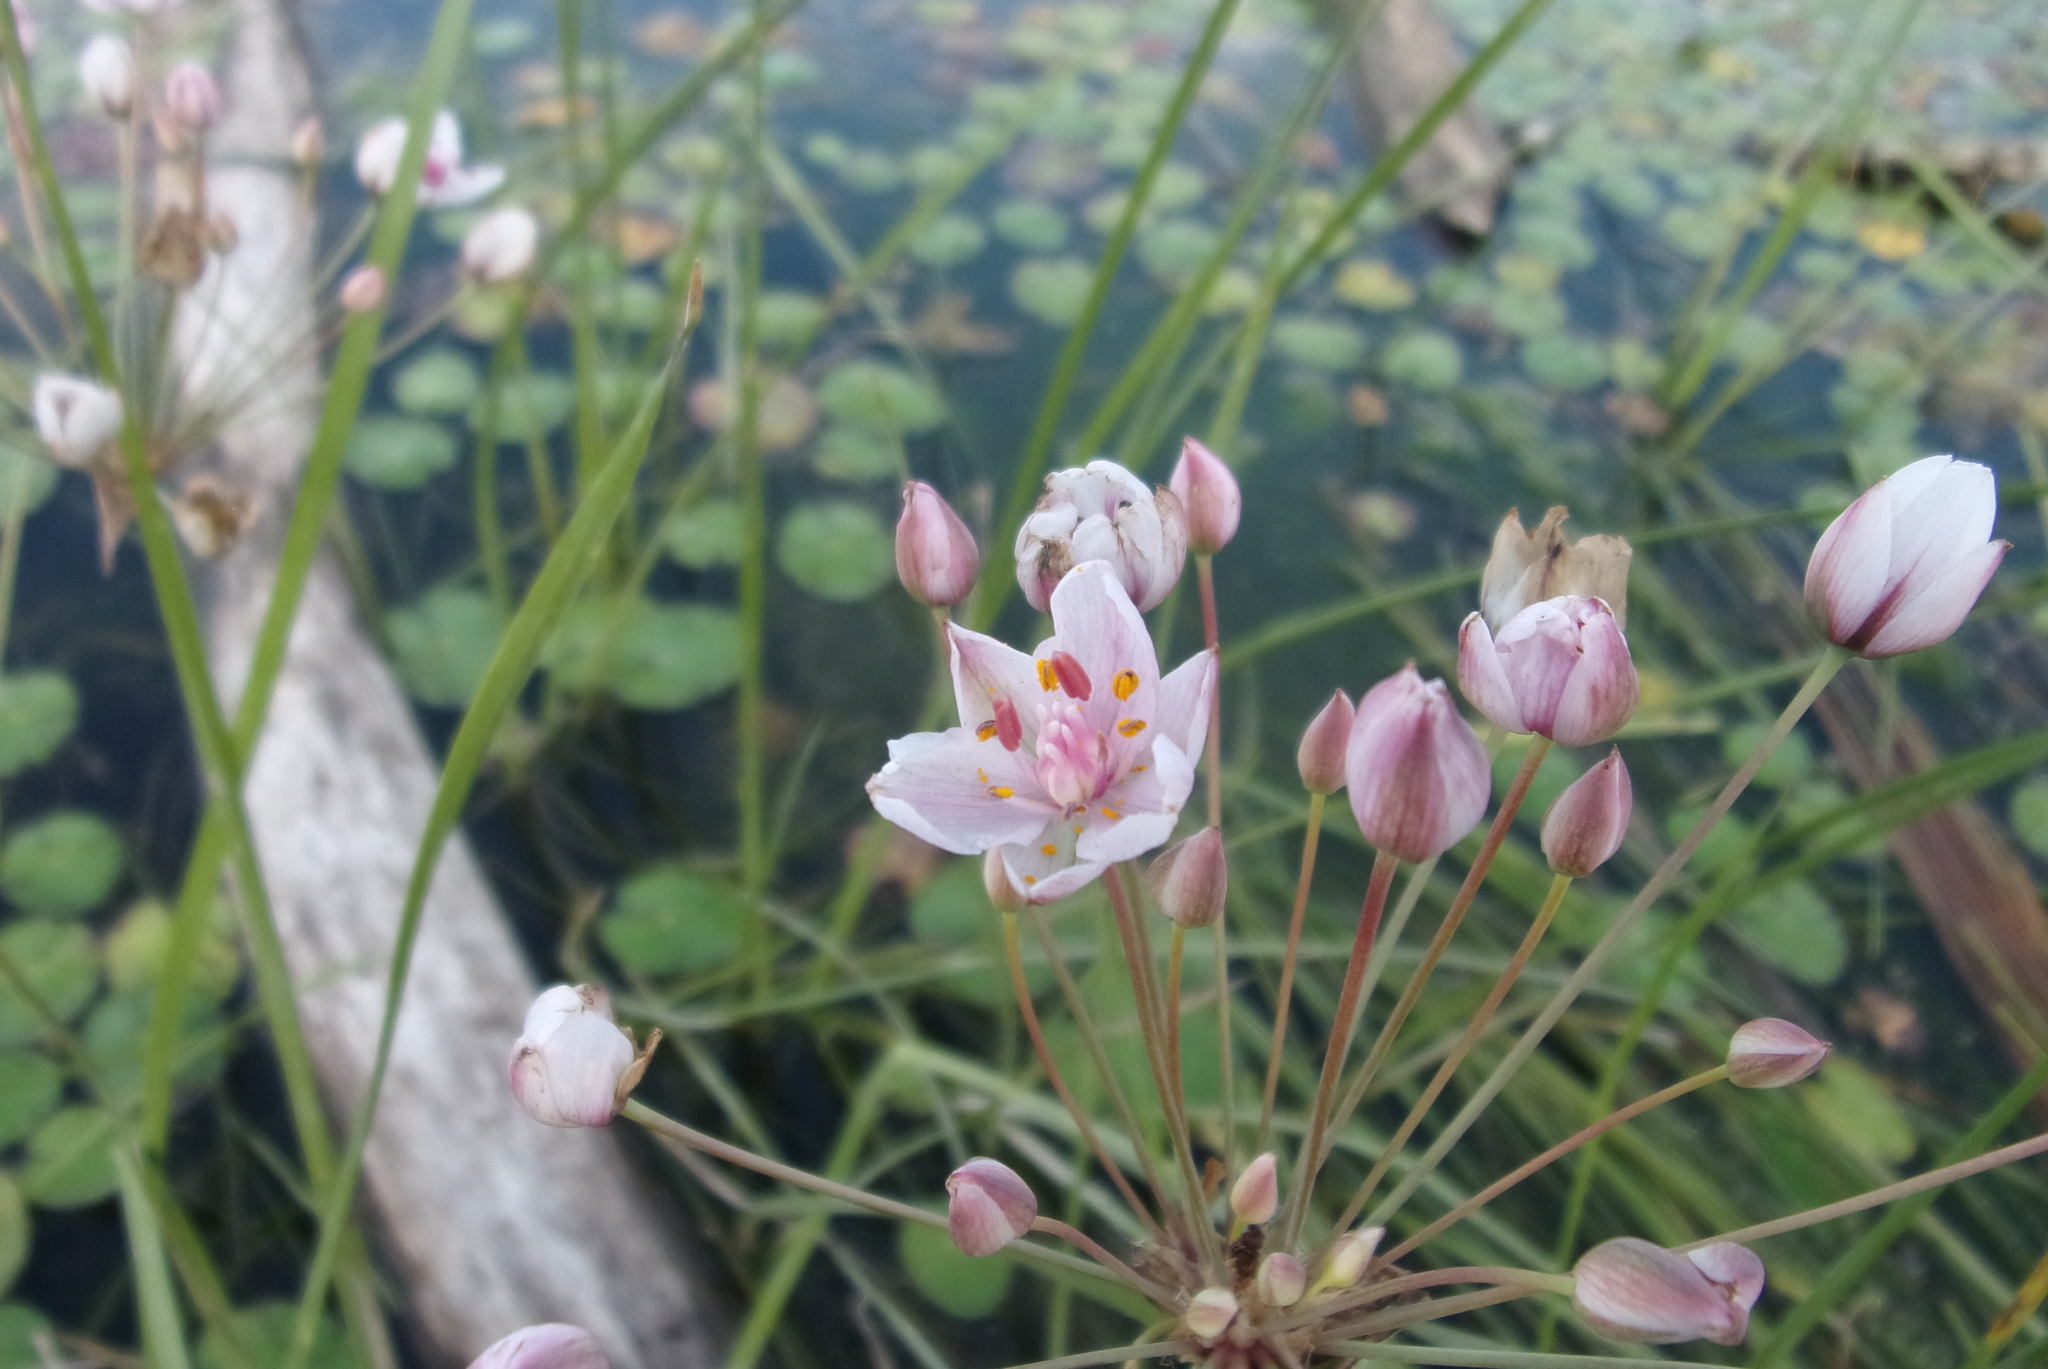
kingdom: Plantae
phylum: Tracheophyta
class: Liliopsida
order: Alismatales
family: Butomaceae
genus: Butomus
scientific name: Butomus umbellatus
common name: Flowering-rush
